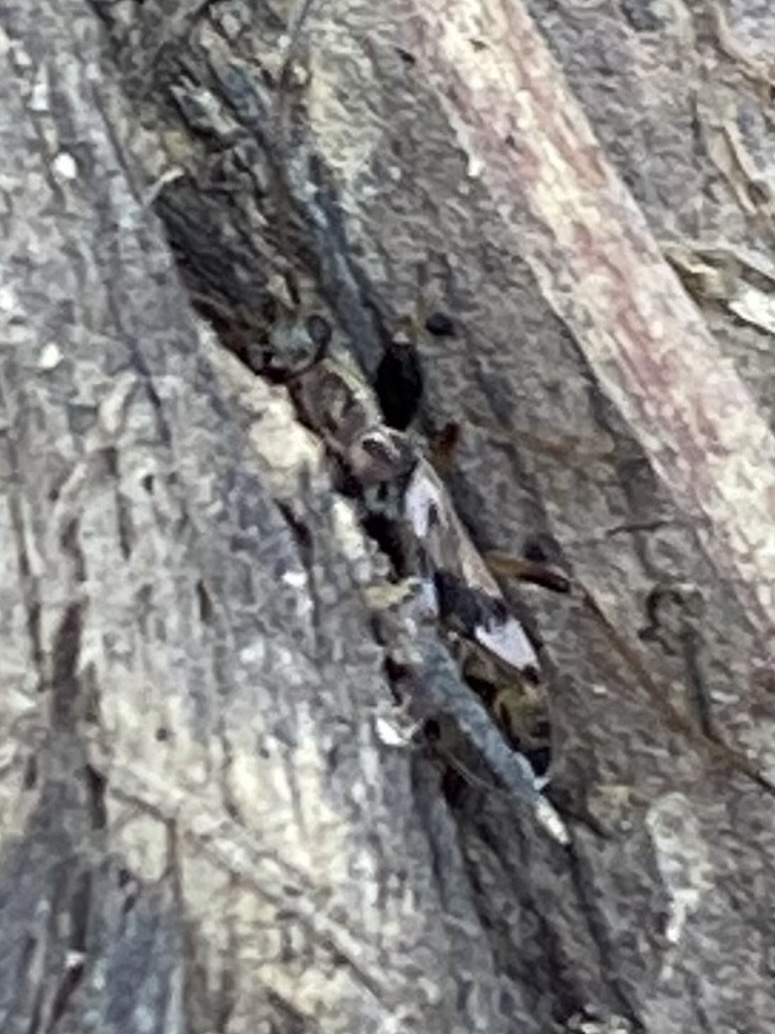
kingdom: Animalia
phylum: Arthropoda
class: Insecta
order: Hemiptera
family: Rhyparochromidae
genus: Neopamera
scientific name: Neopamera bilobata
